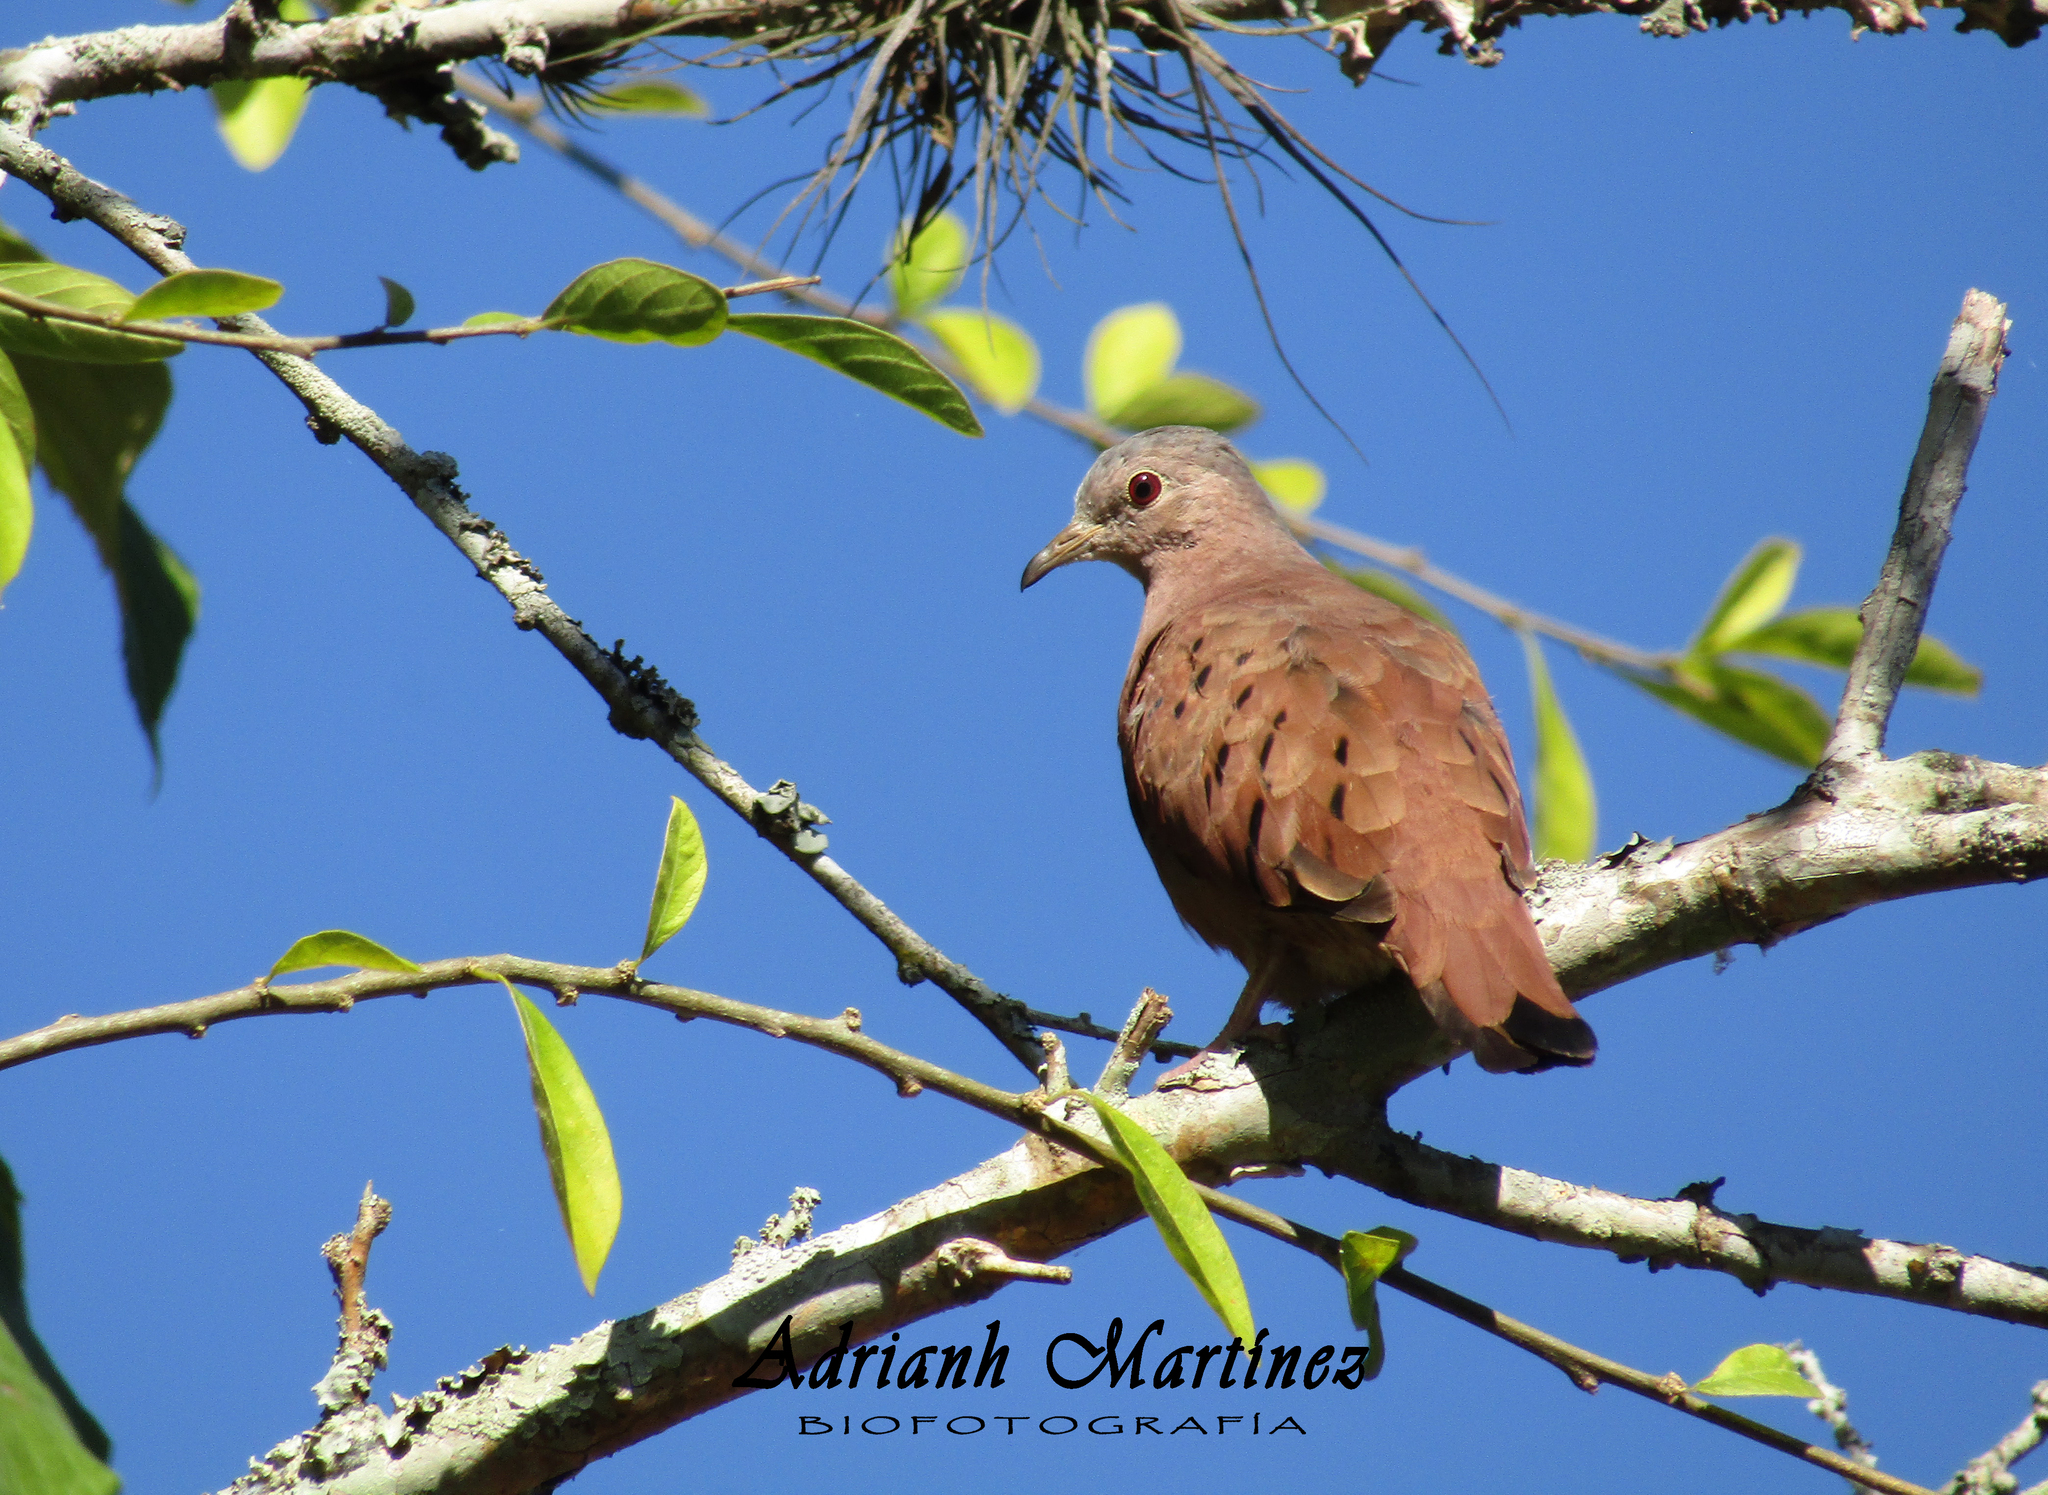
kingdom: Animalia
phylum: Chordata
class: Aves
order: Columbiformes
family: Columbidae
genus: Columbina
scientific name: Columbina talpacoti
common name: Ruddy ground dove
